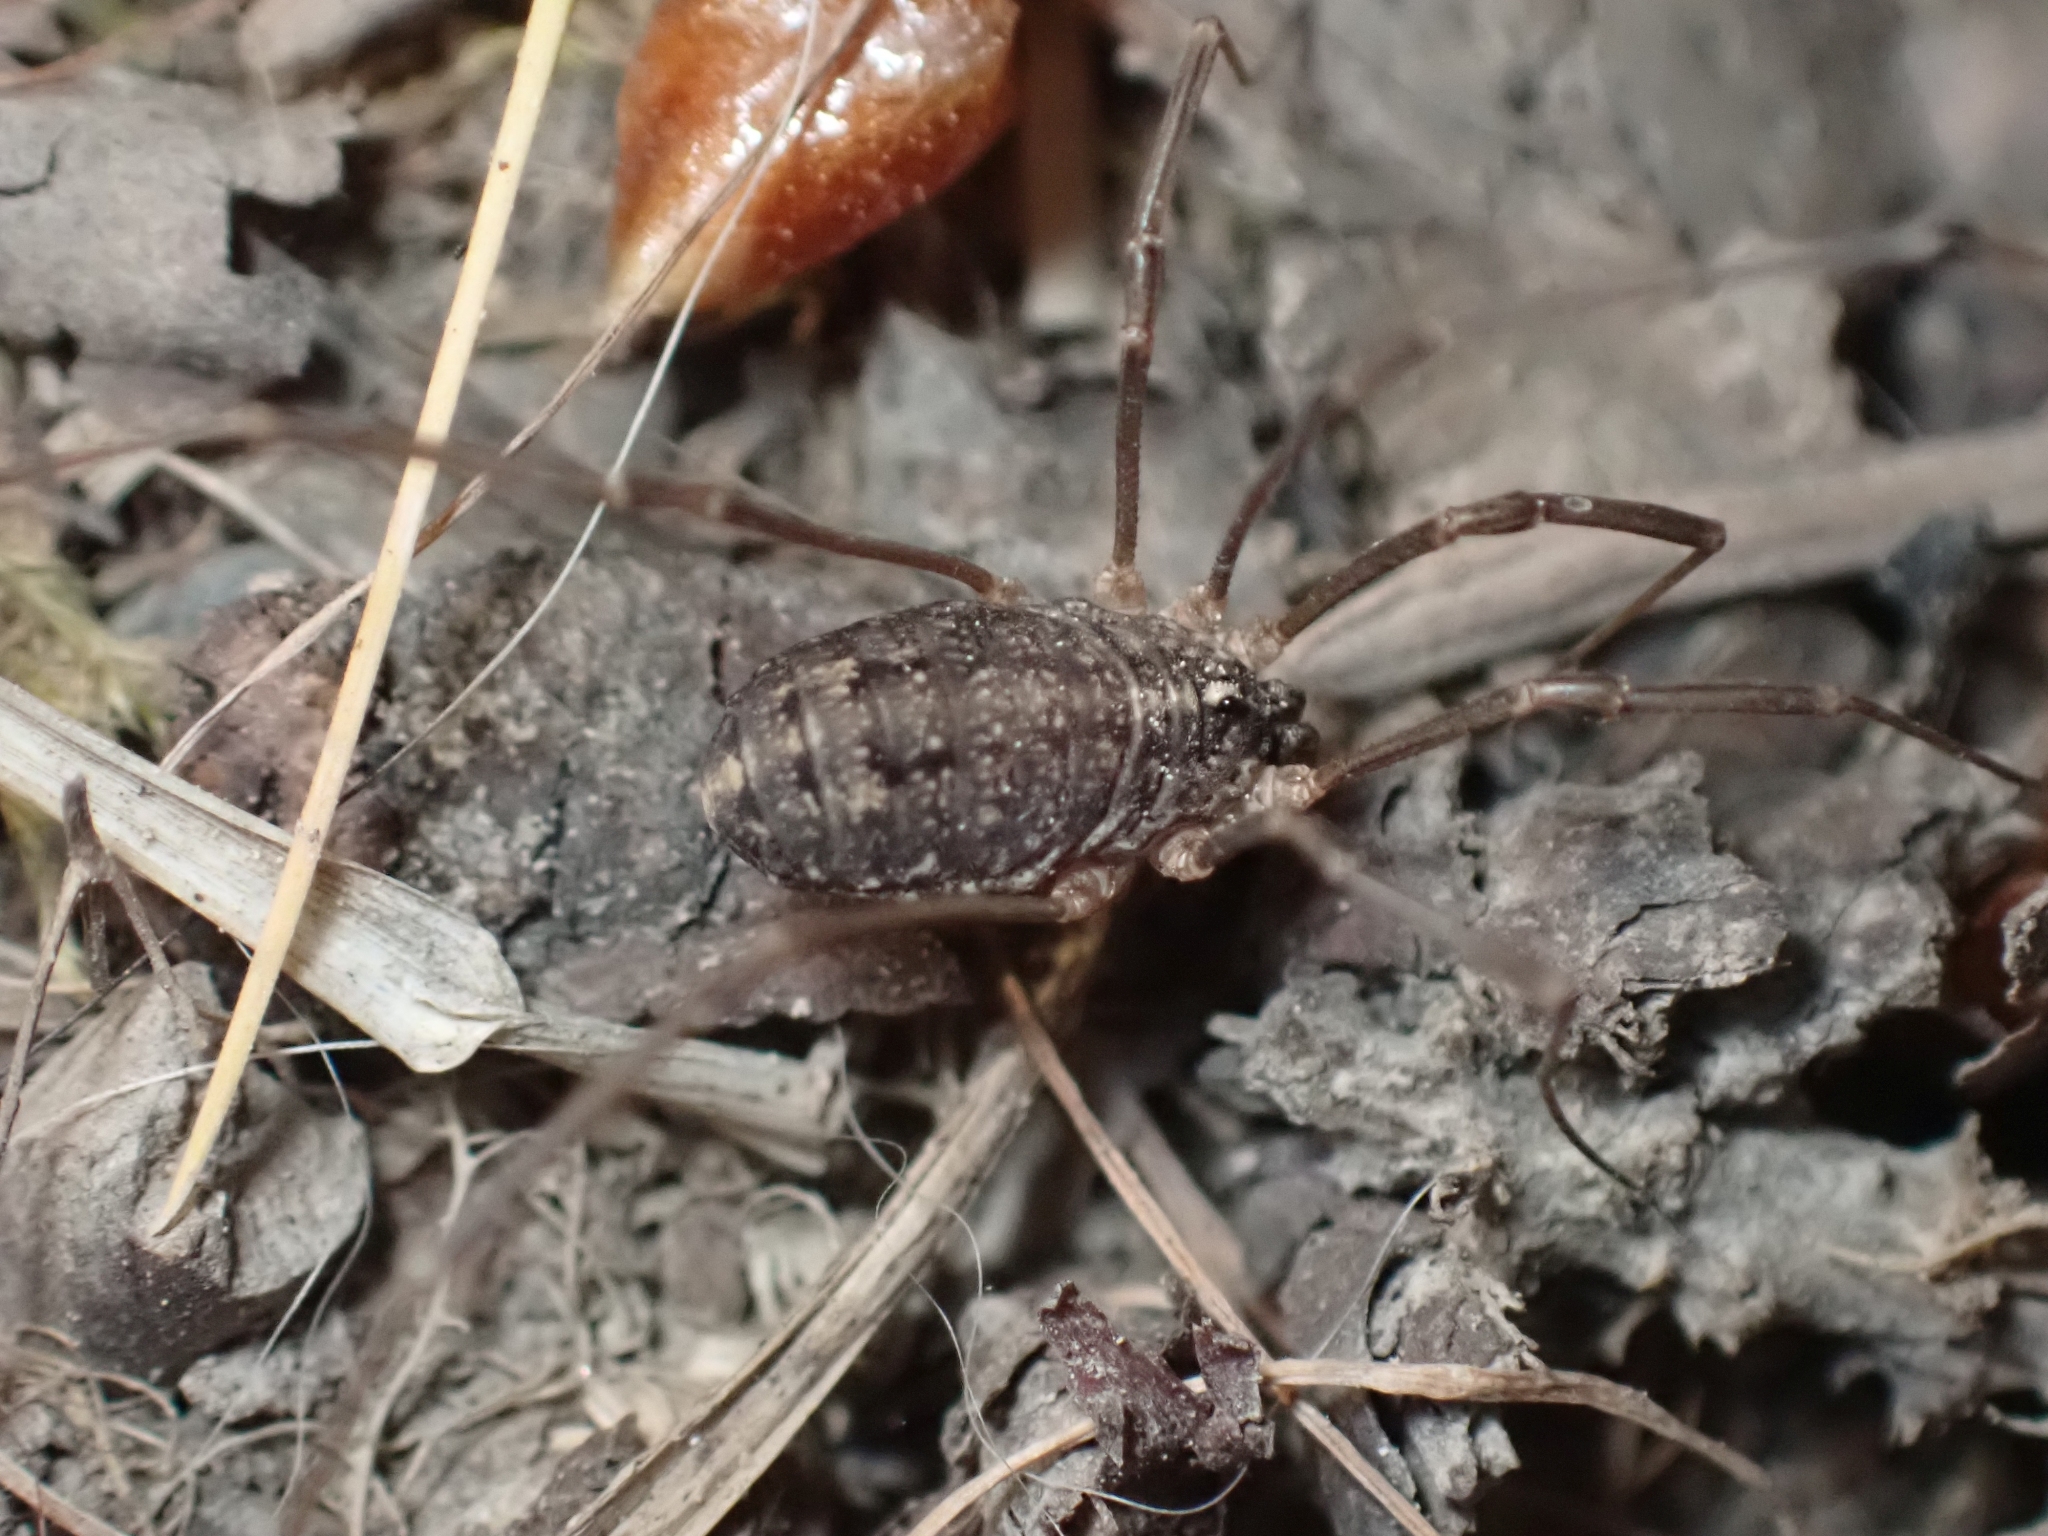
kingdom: Animalia
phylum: Arthropoda
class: Arachnida
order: Opiliones
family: Sclerosomatidae
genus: Togwoteeus
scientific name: Togwoteeus biceps
